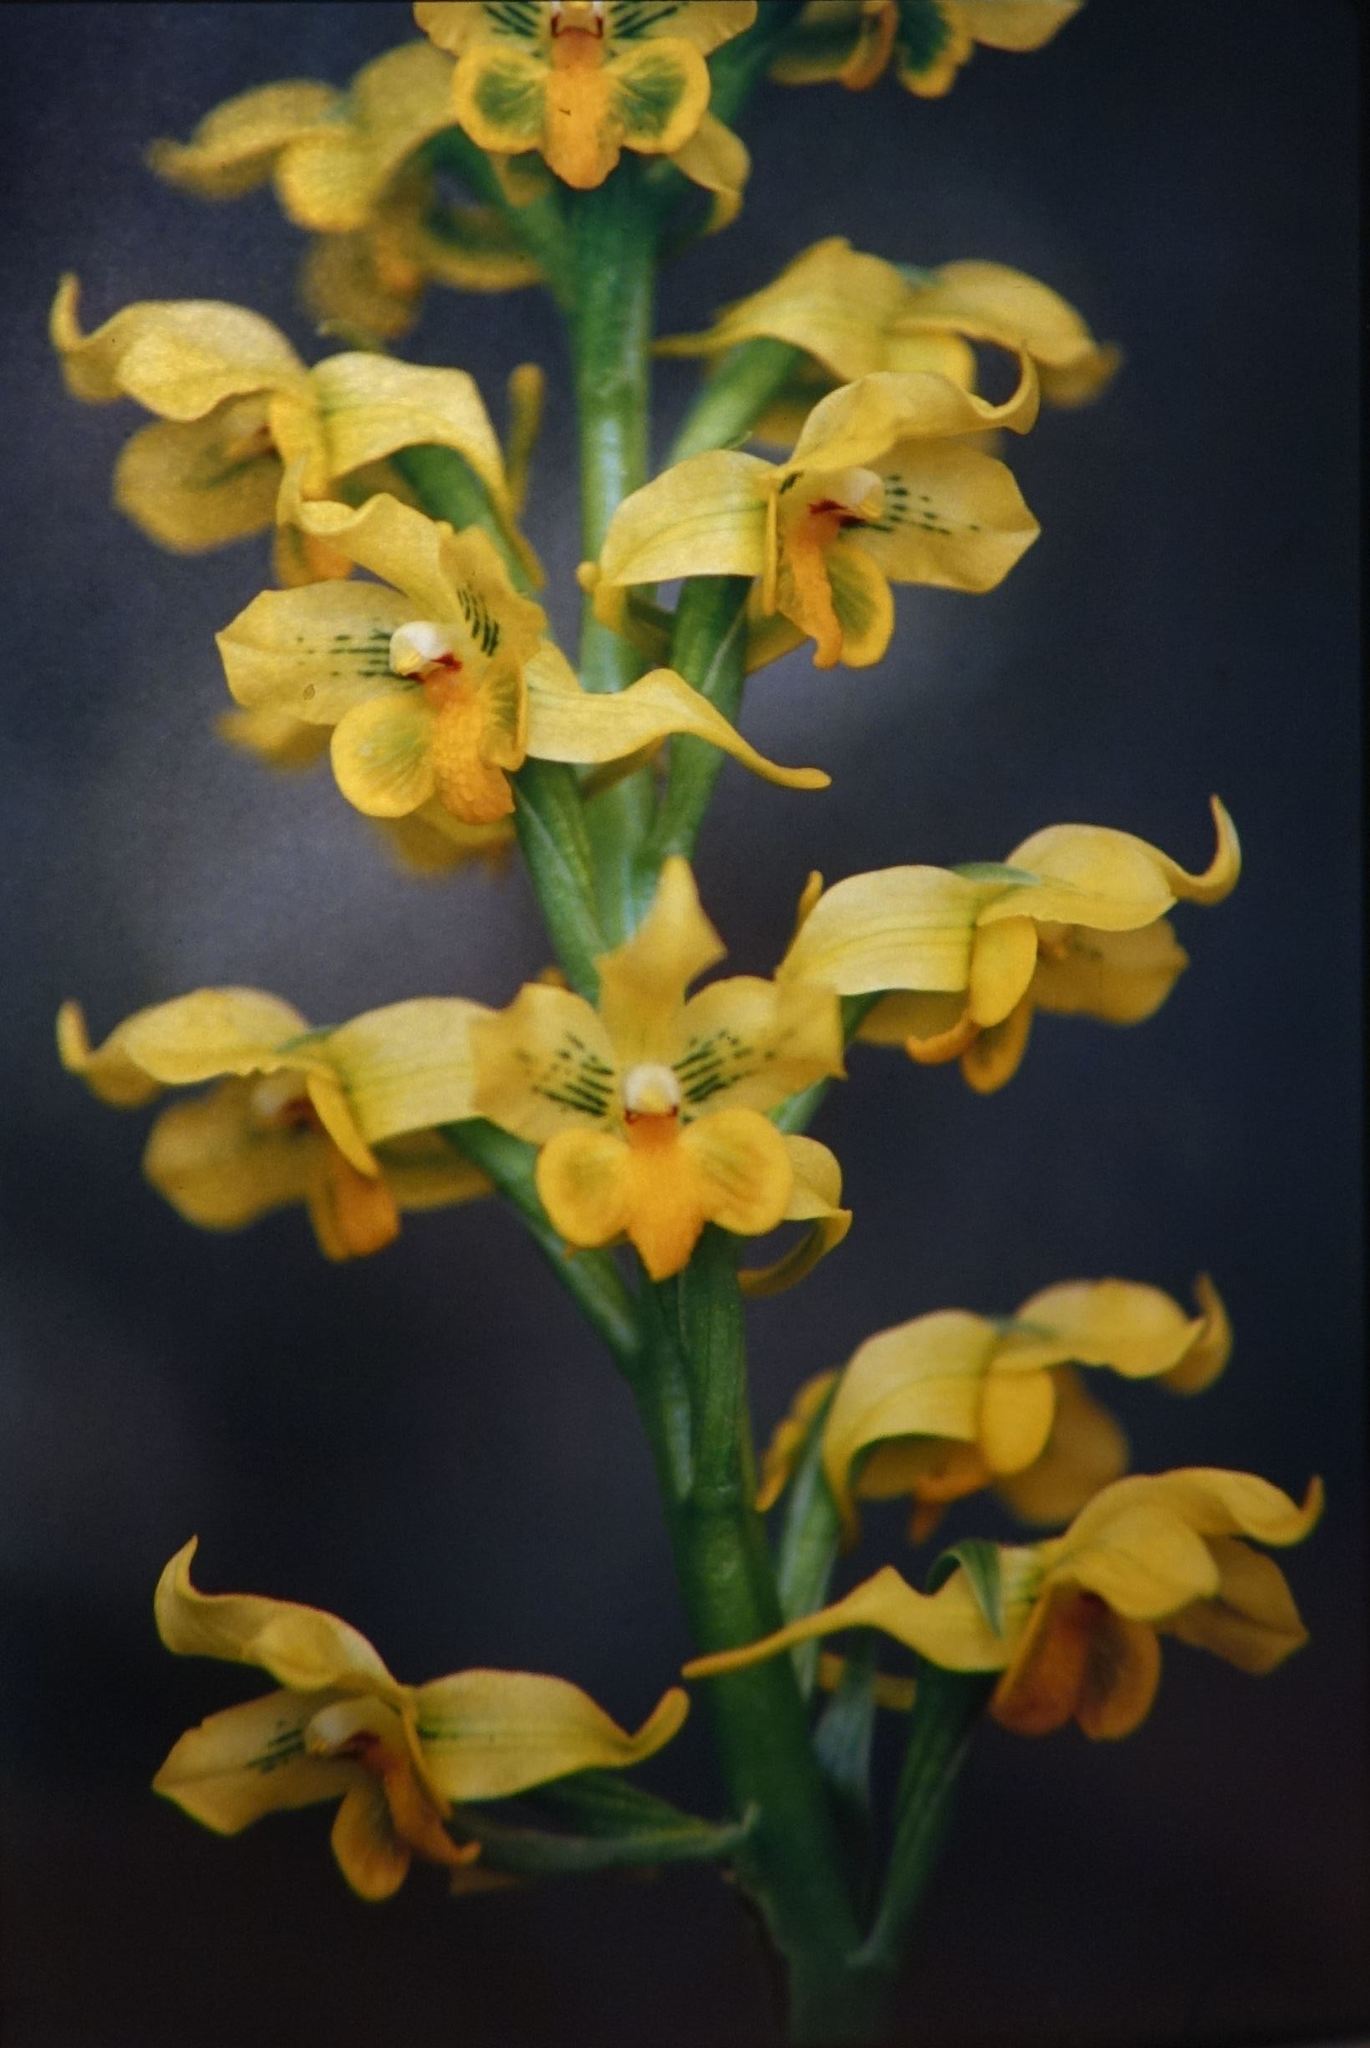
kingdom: Plantae
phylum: Tracheophyta
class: Liliopsida
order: Asparagales
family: Orchidaceae
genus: Gavilea
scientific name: Gavilea odoratissima
